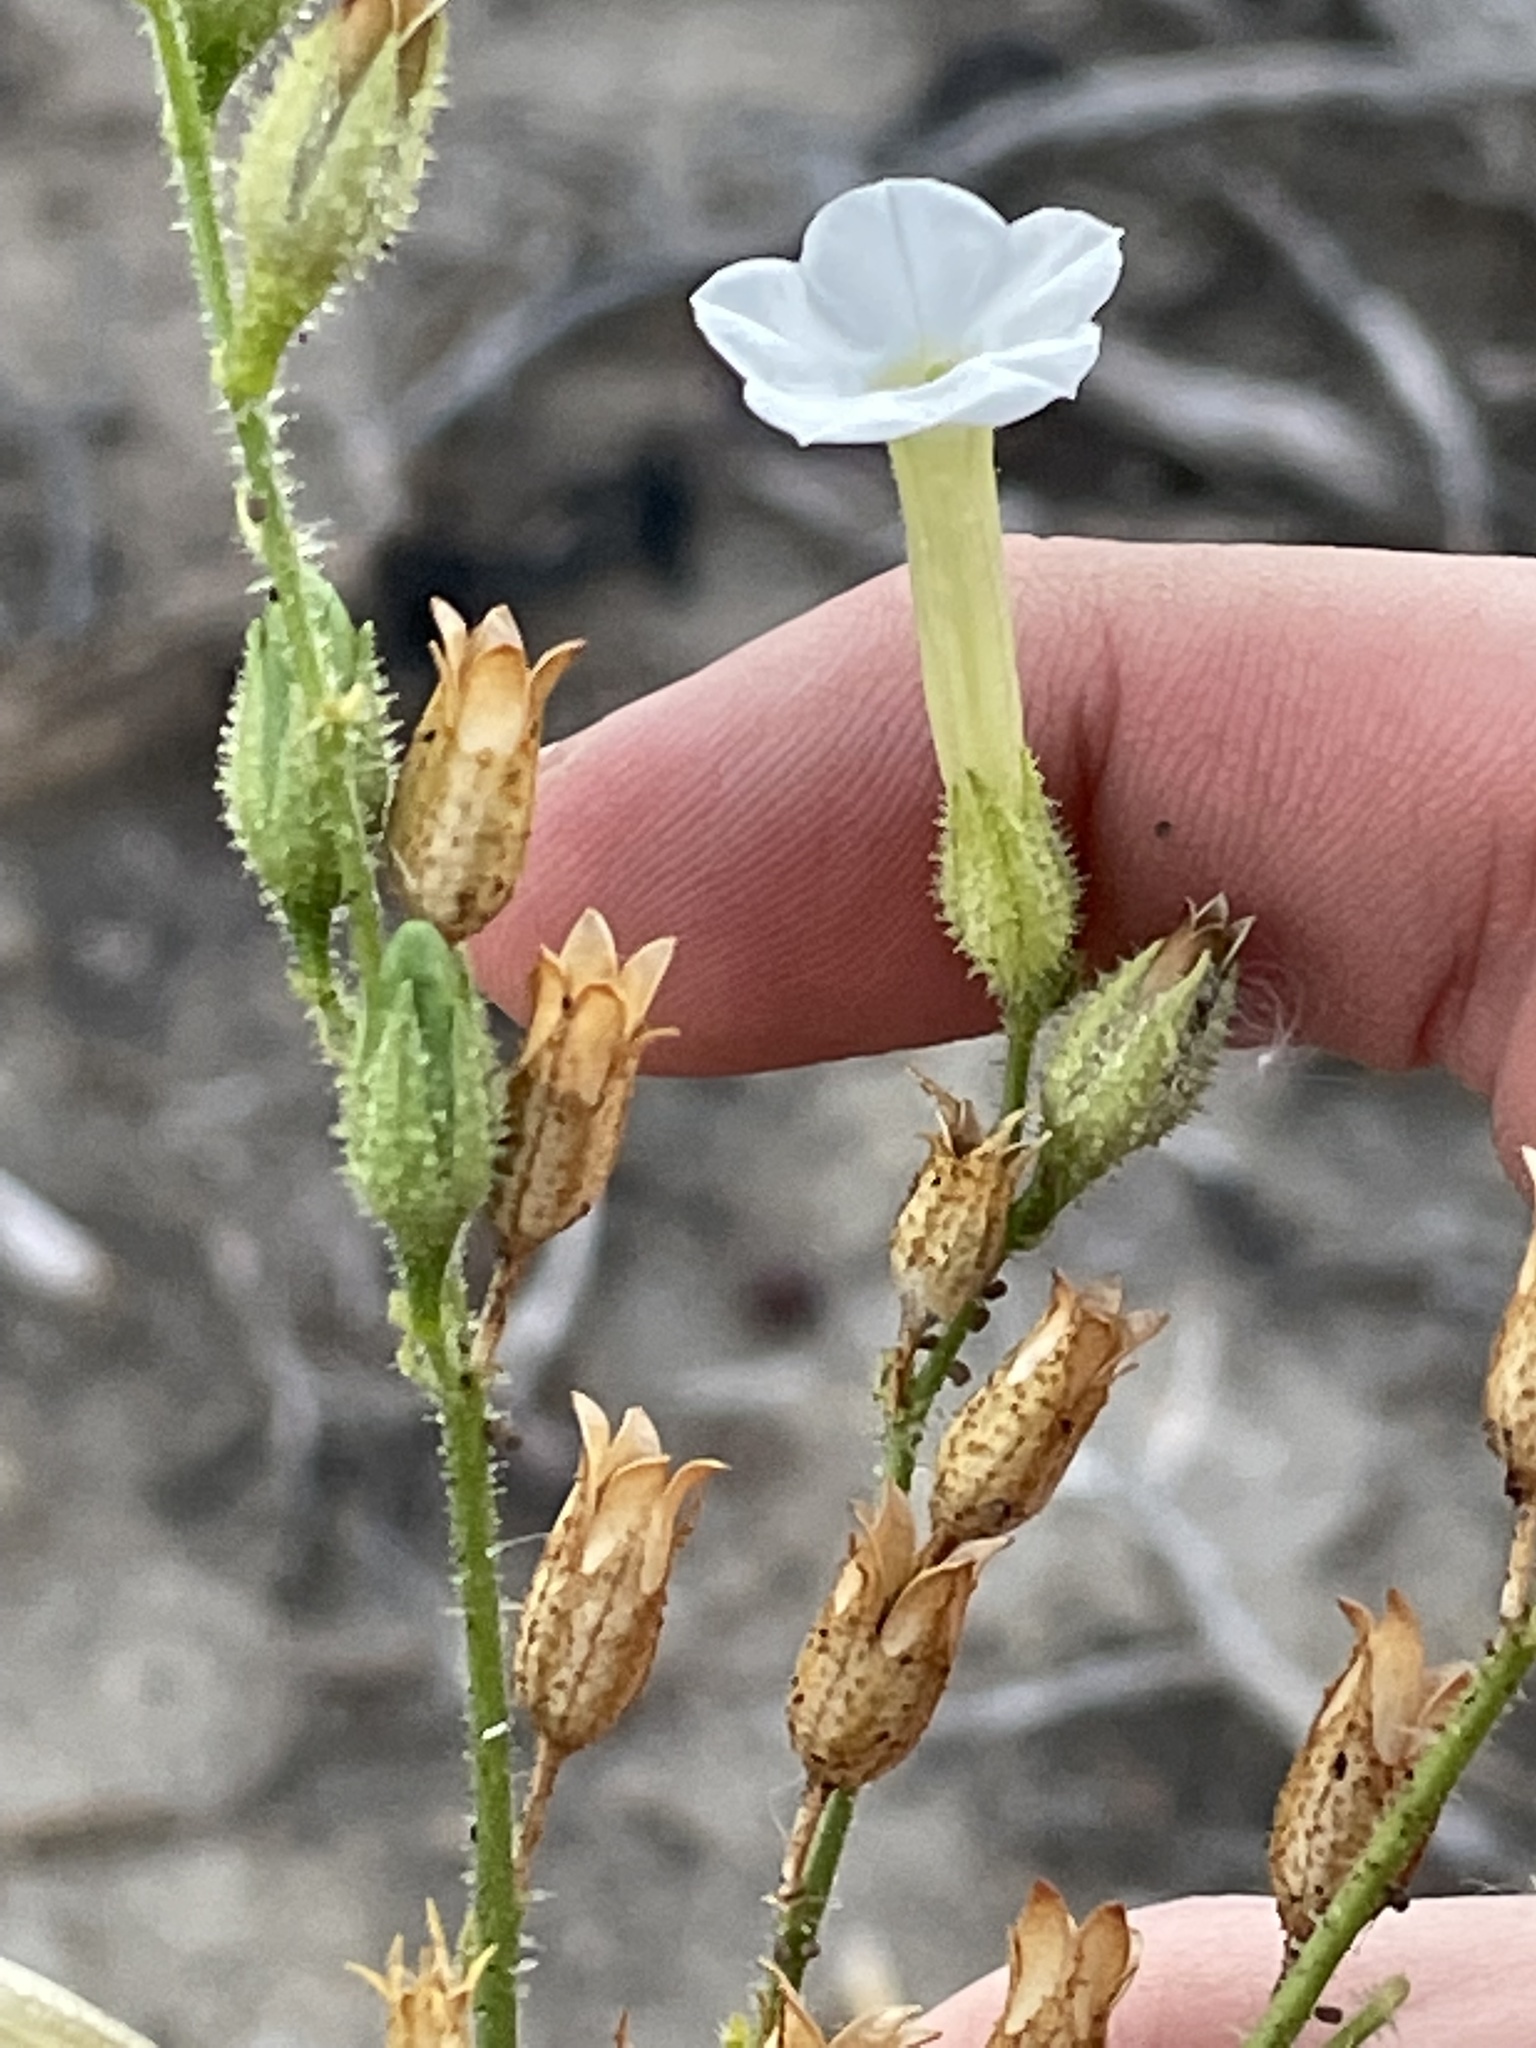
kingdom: Plantae
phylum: Tracheophyta
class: Magnoliopsida
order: Solanales
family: Solanaceae
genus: Nicotiana
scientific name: Nicotiana attenuata
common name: Coyote tobacco
